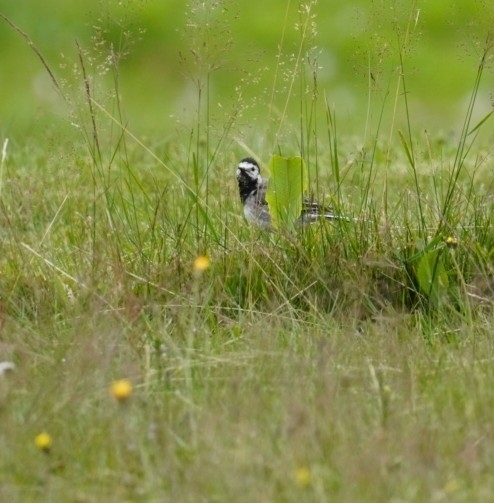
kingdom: Animalia
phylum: Chordata
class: Aves
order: Passeriformes
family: Motacillidae
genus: Motacilla
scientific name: Motacilla alba
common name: White wagtail
